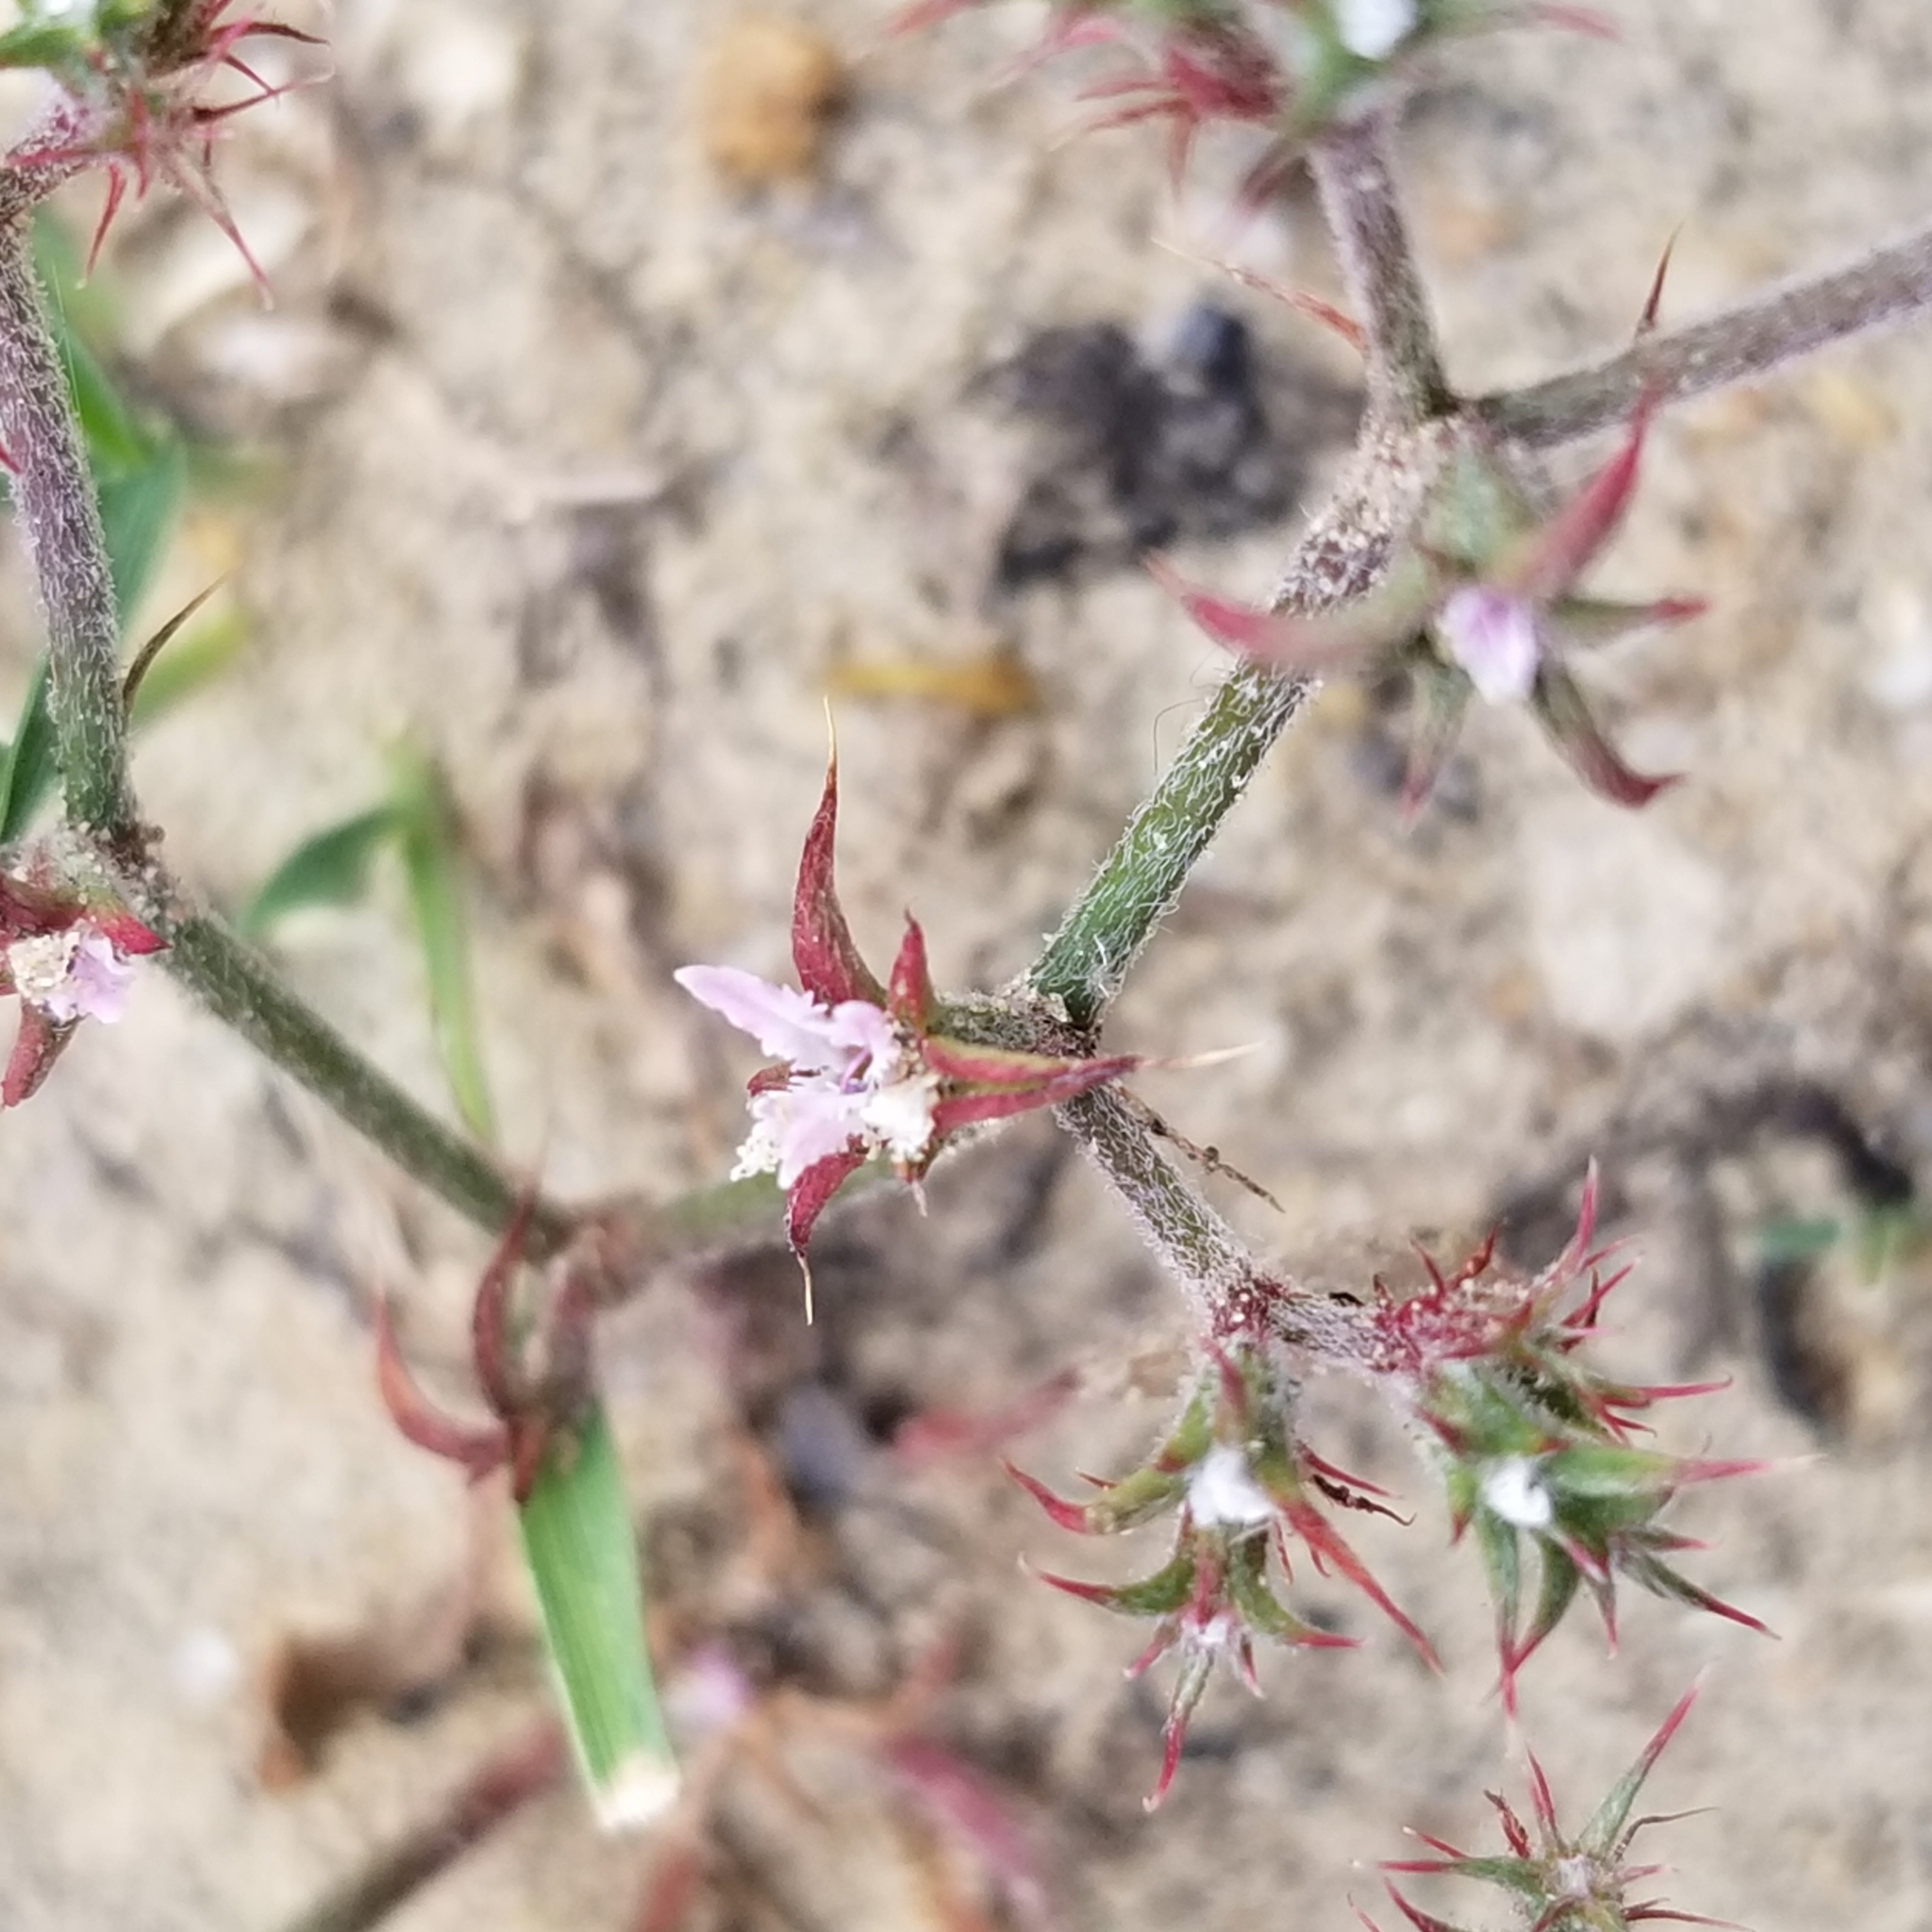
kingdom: Plantae
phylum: Tracheophyta
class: Magnoliopsida
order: Caryophyllales
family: Polygonaceae
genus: Chorizanthe
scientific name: Chorizanthe fimbriata
